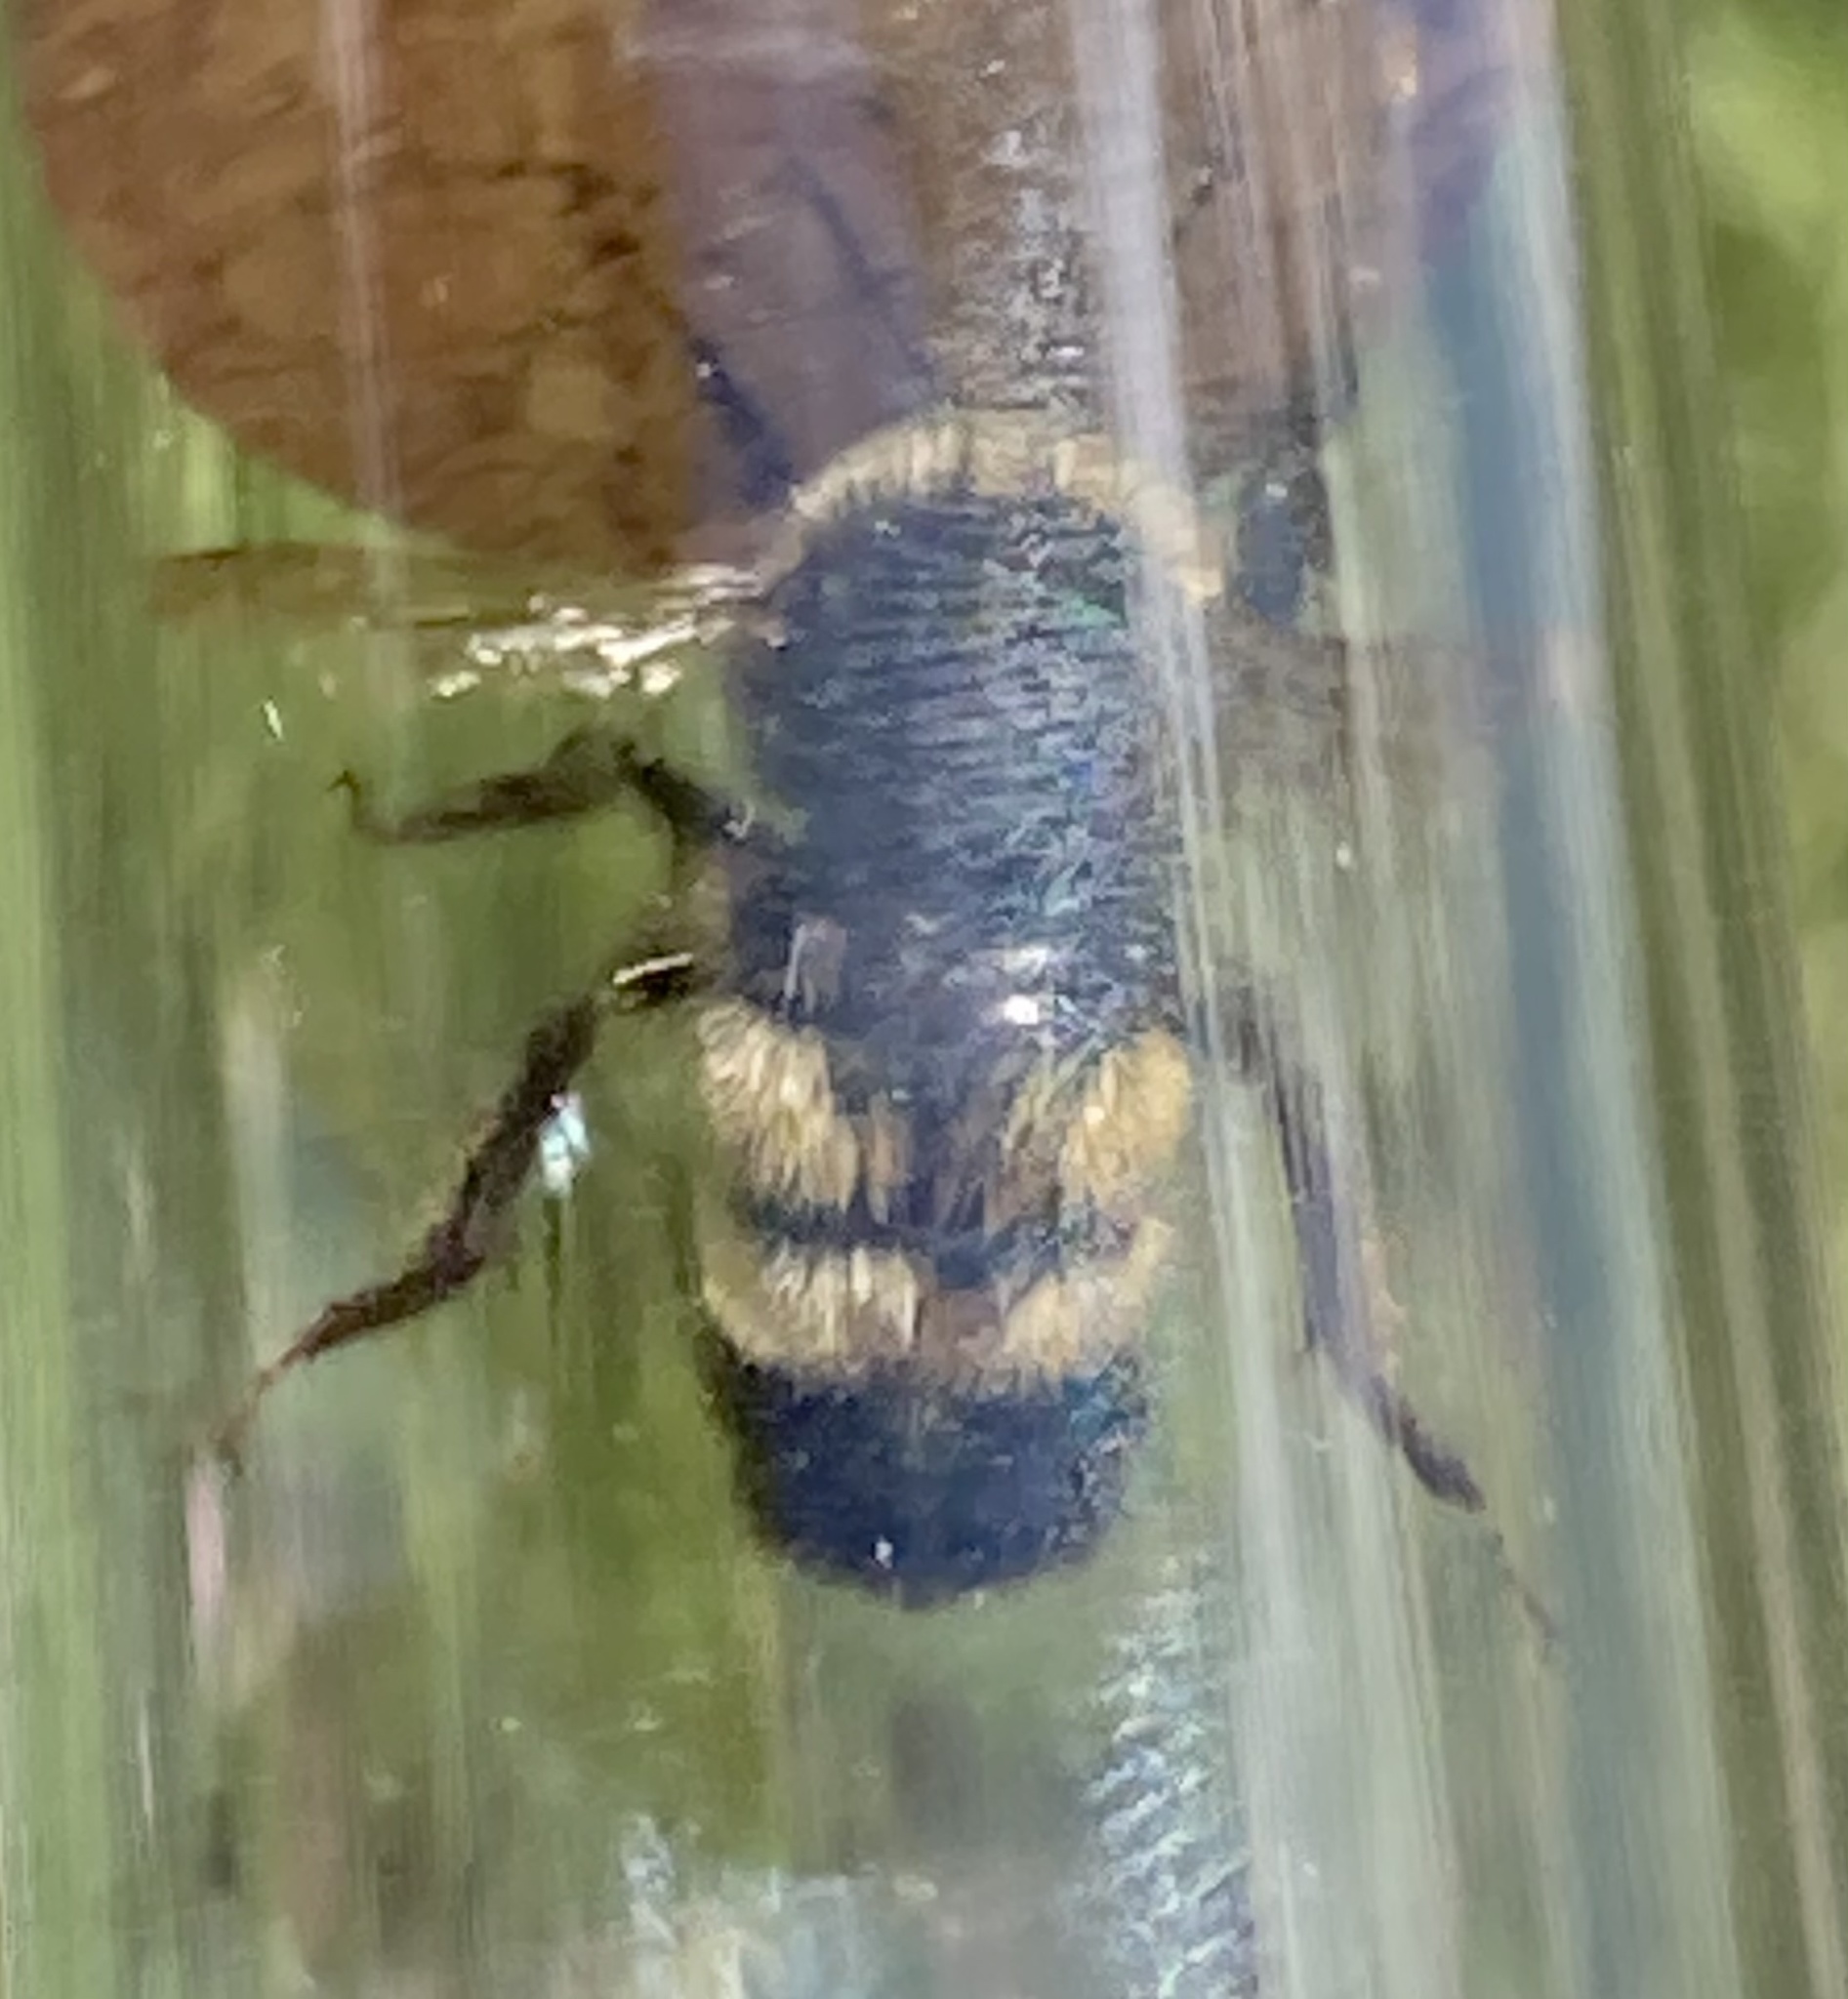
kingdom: Animalia
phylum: Arthropoda
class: Insecta
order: Hymenoptera
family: Apidae
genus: Bombus
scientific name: Bombus terricola
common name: Yellow-banded bumble bee
